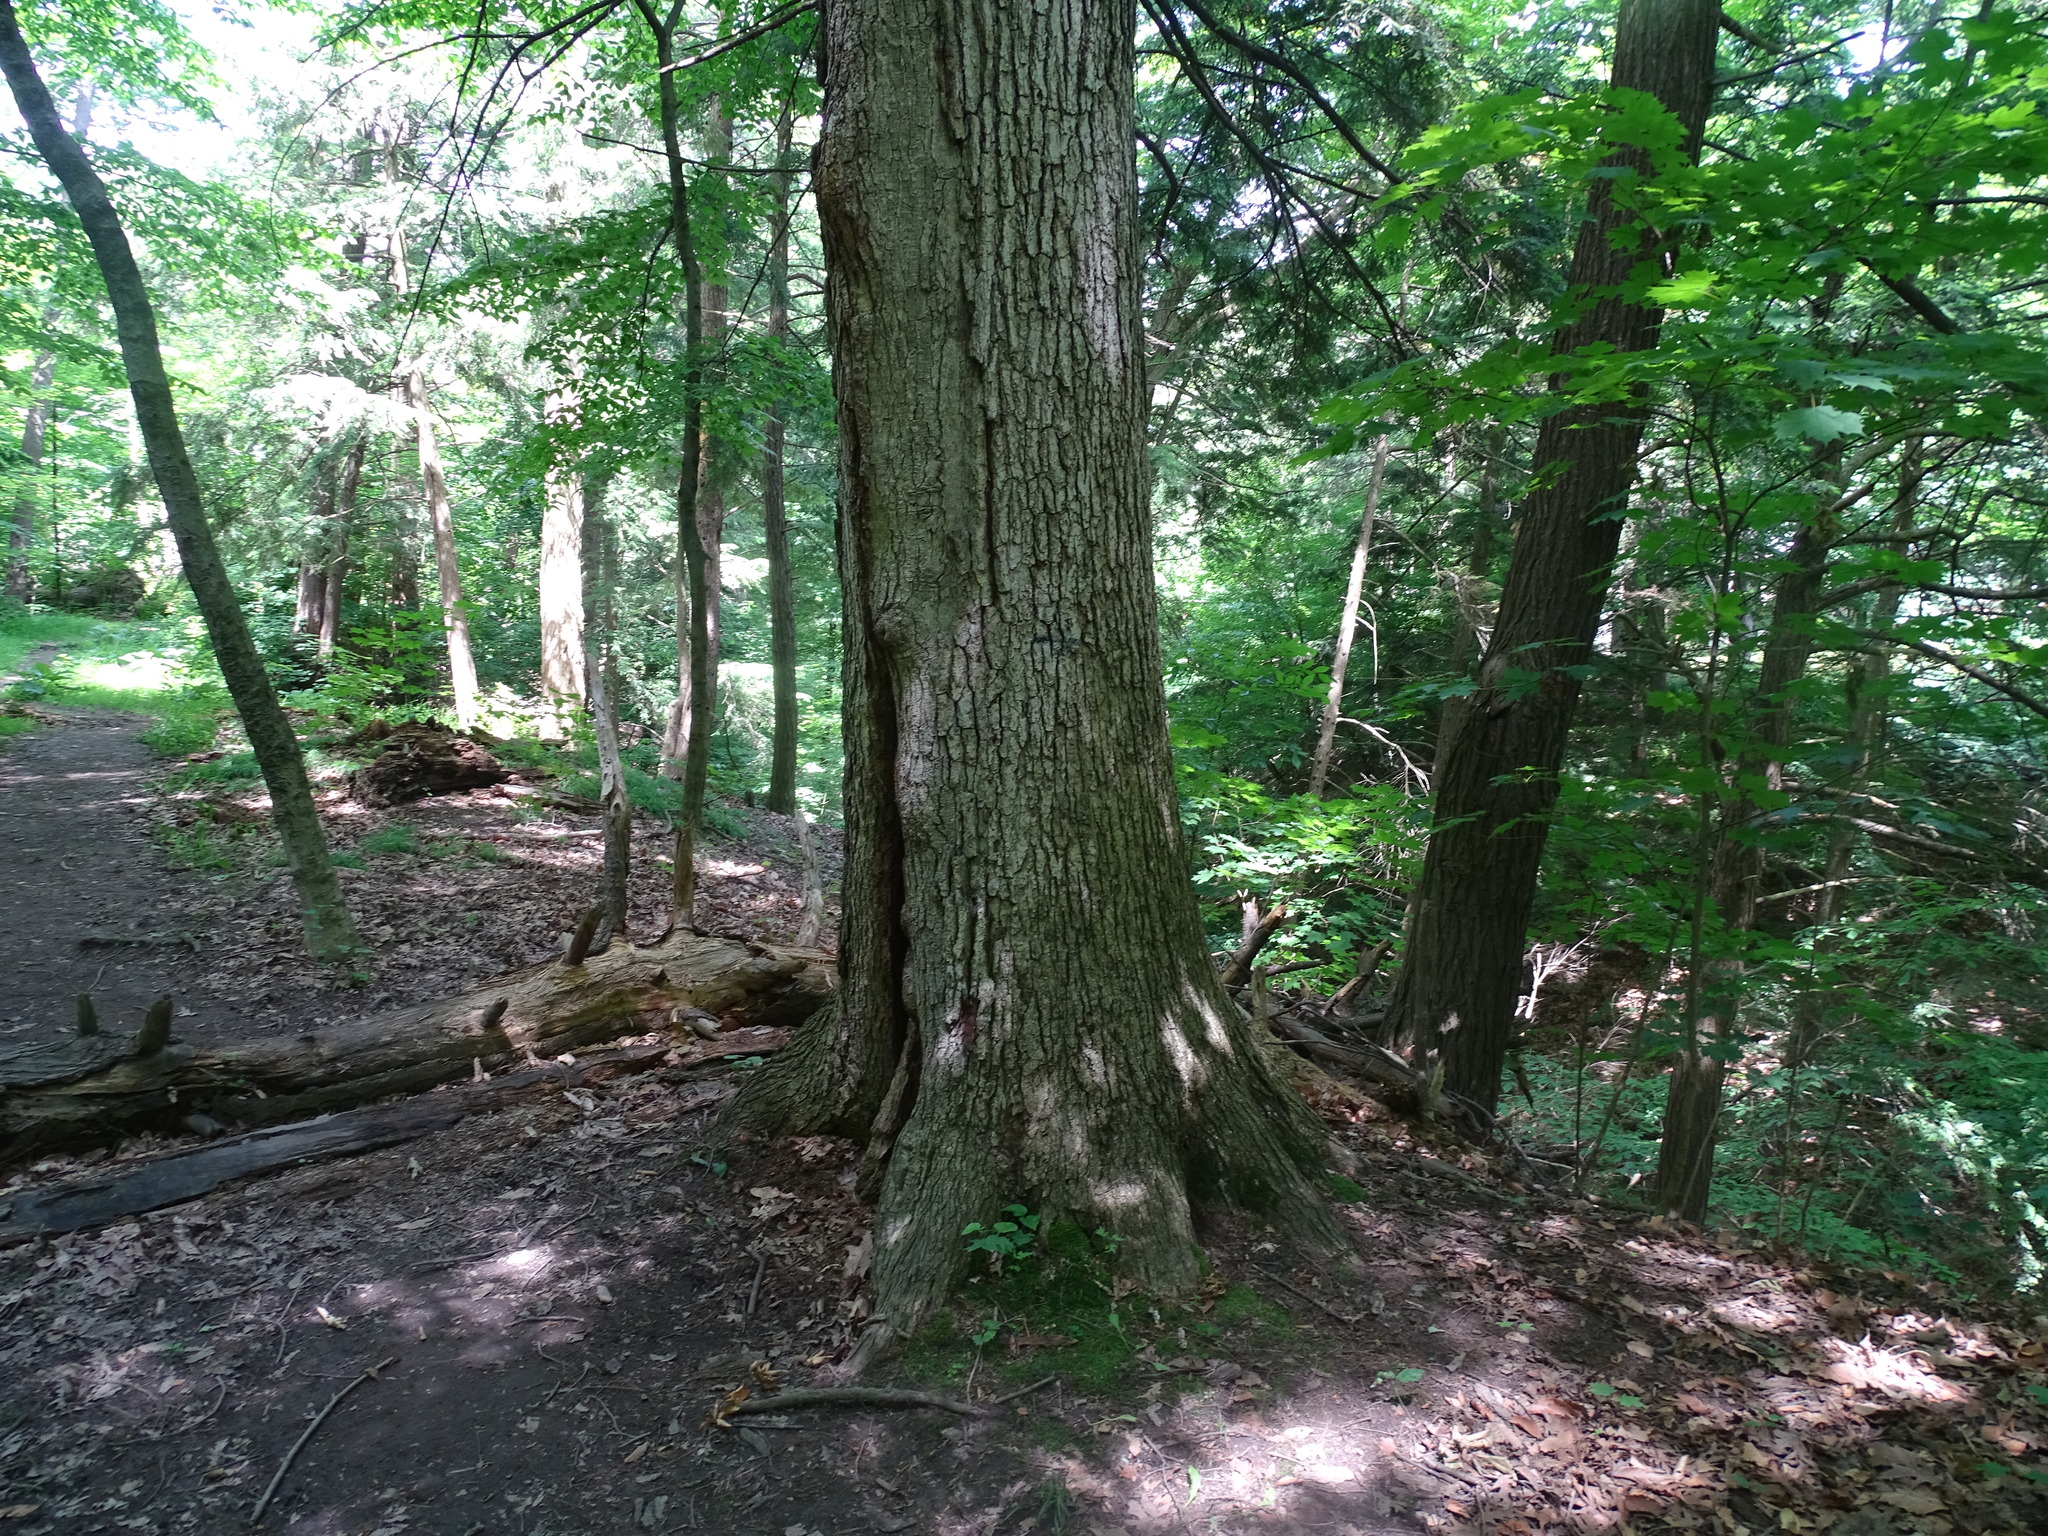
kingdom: Plantae
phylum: Tracheophyta
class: Magnoliopsida
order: Fagales
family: Fagaceae
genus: Quercus
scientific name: Quercus alba
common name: White oak
